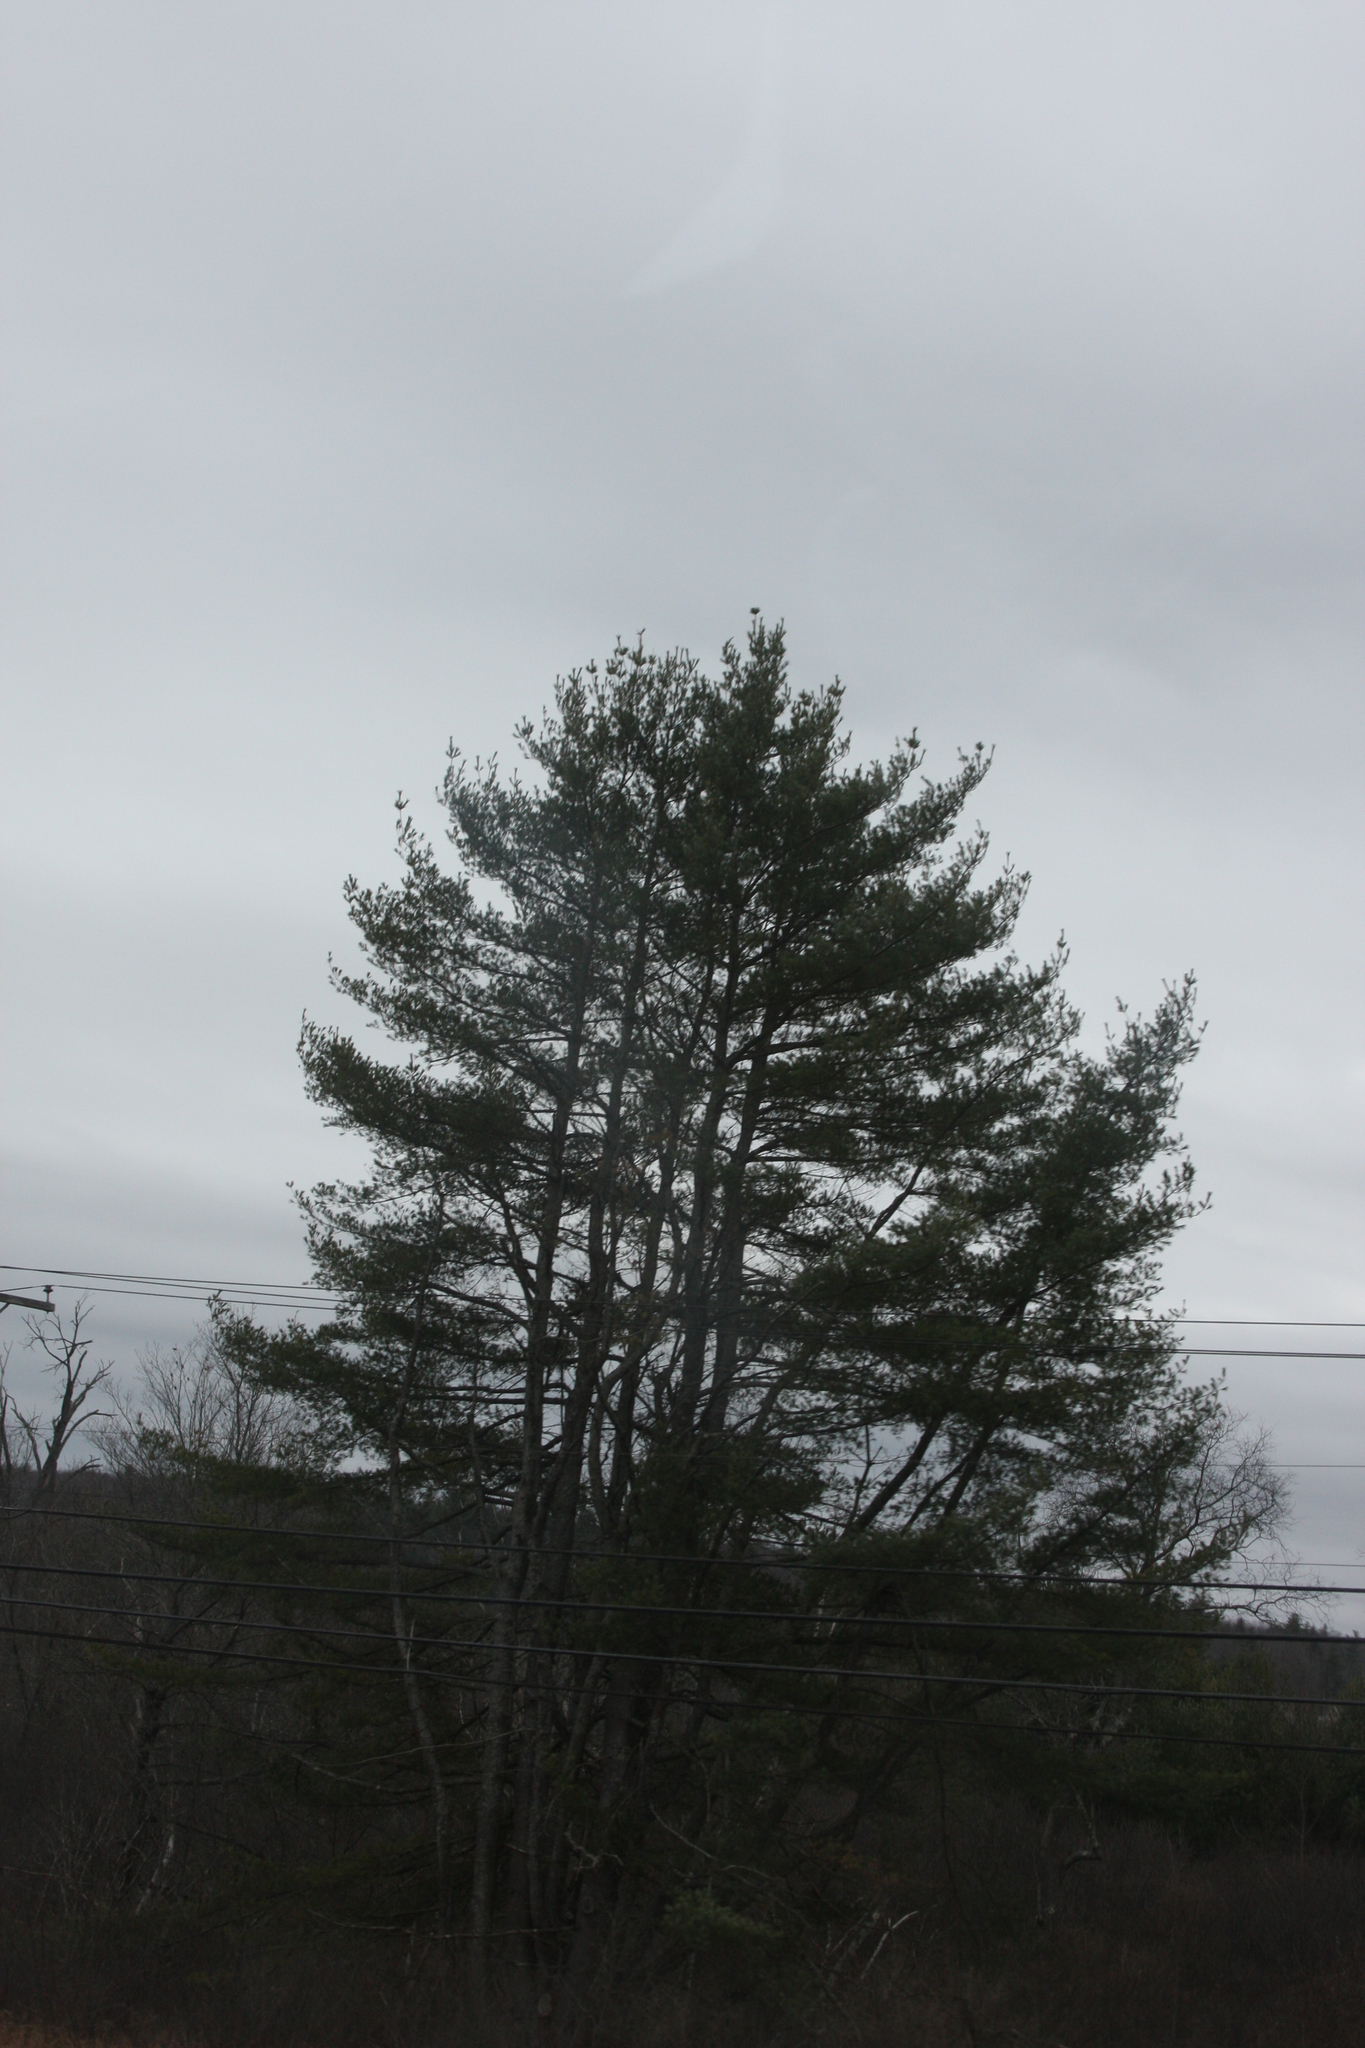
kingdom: Plantae
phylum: Tracheophyta
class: Pinopsida
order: Pinales
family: Pinaceae
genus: Pinus
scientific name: Pinus strobus
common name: Weymouth pine
